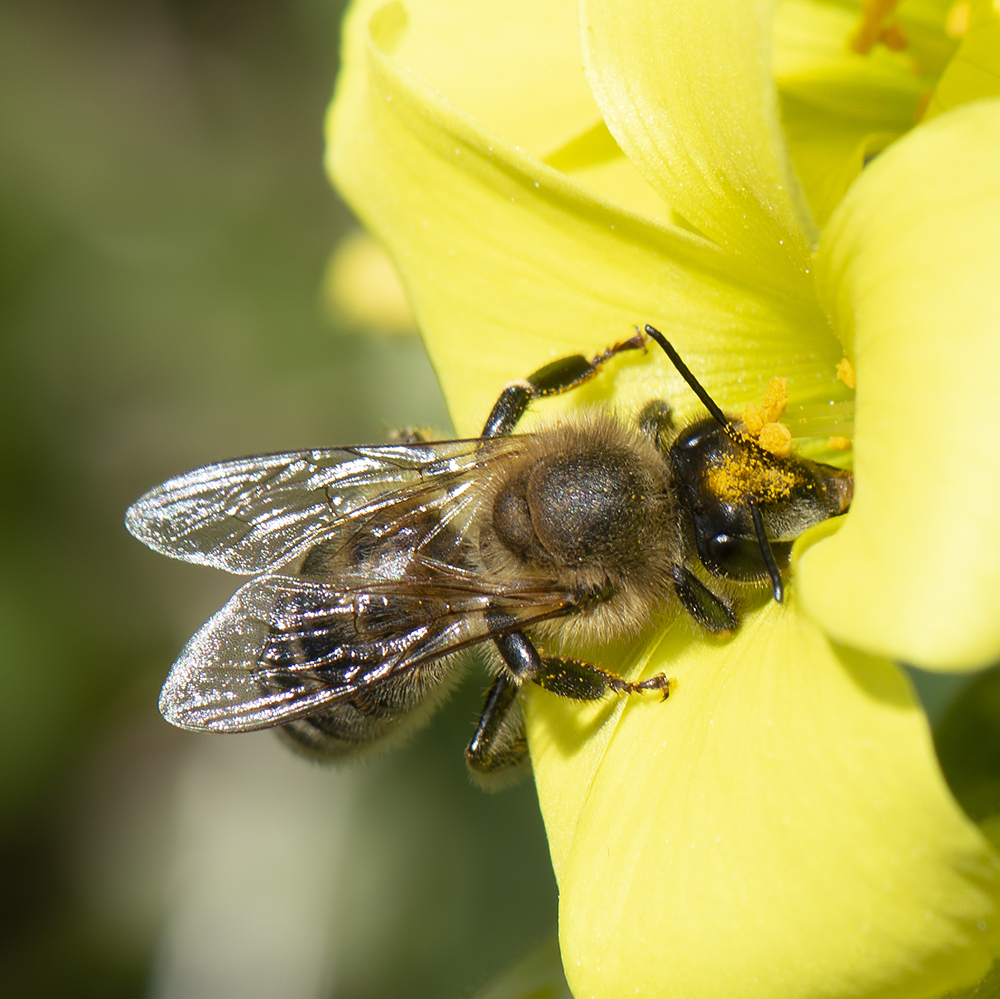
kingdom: Animalia
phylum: Arthropoda
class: Insecta
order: Hymenoptera
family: Apidae
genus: Apis
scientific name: Apis mellifera
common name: Honey bee
